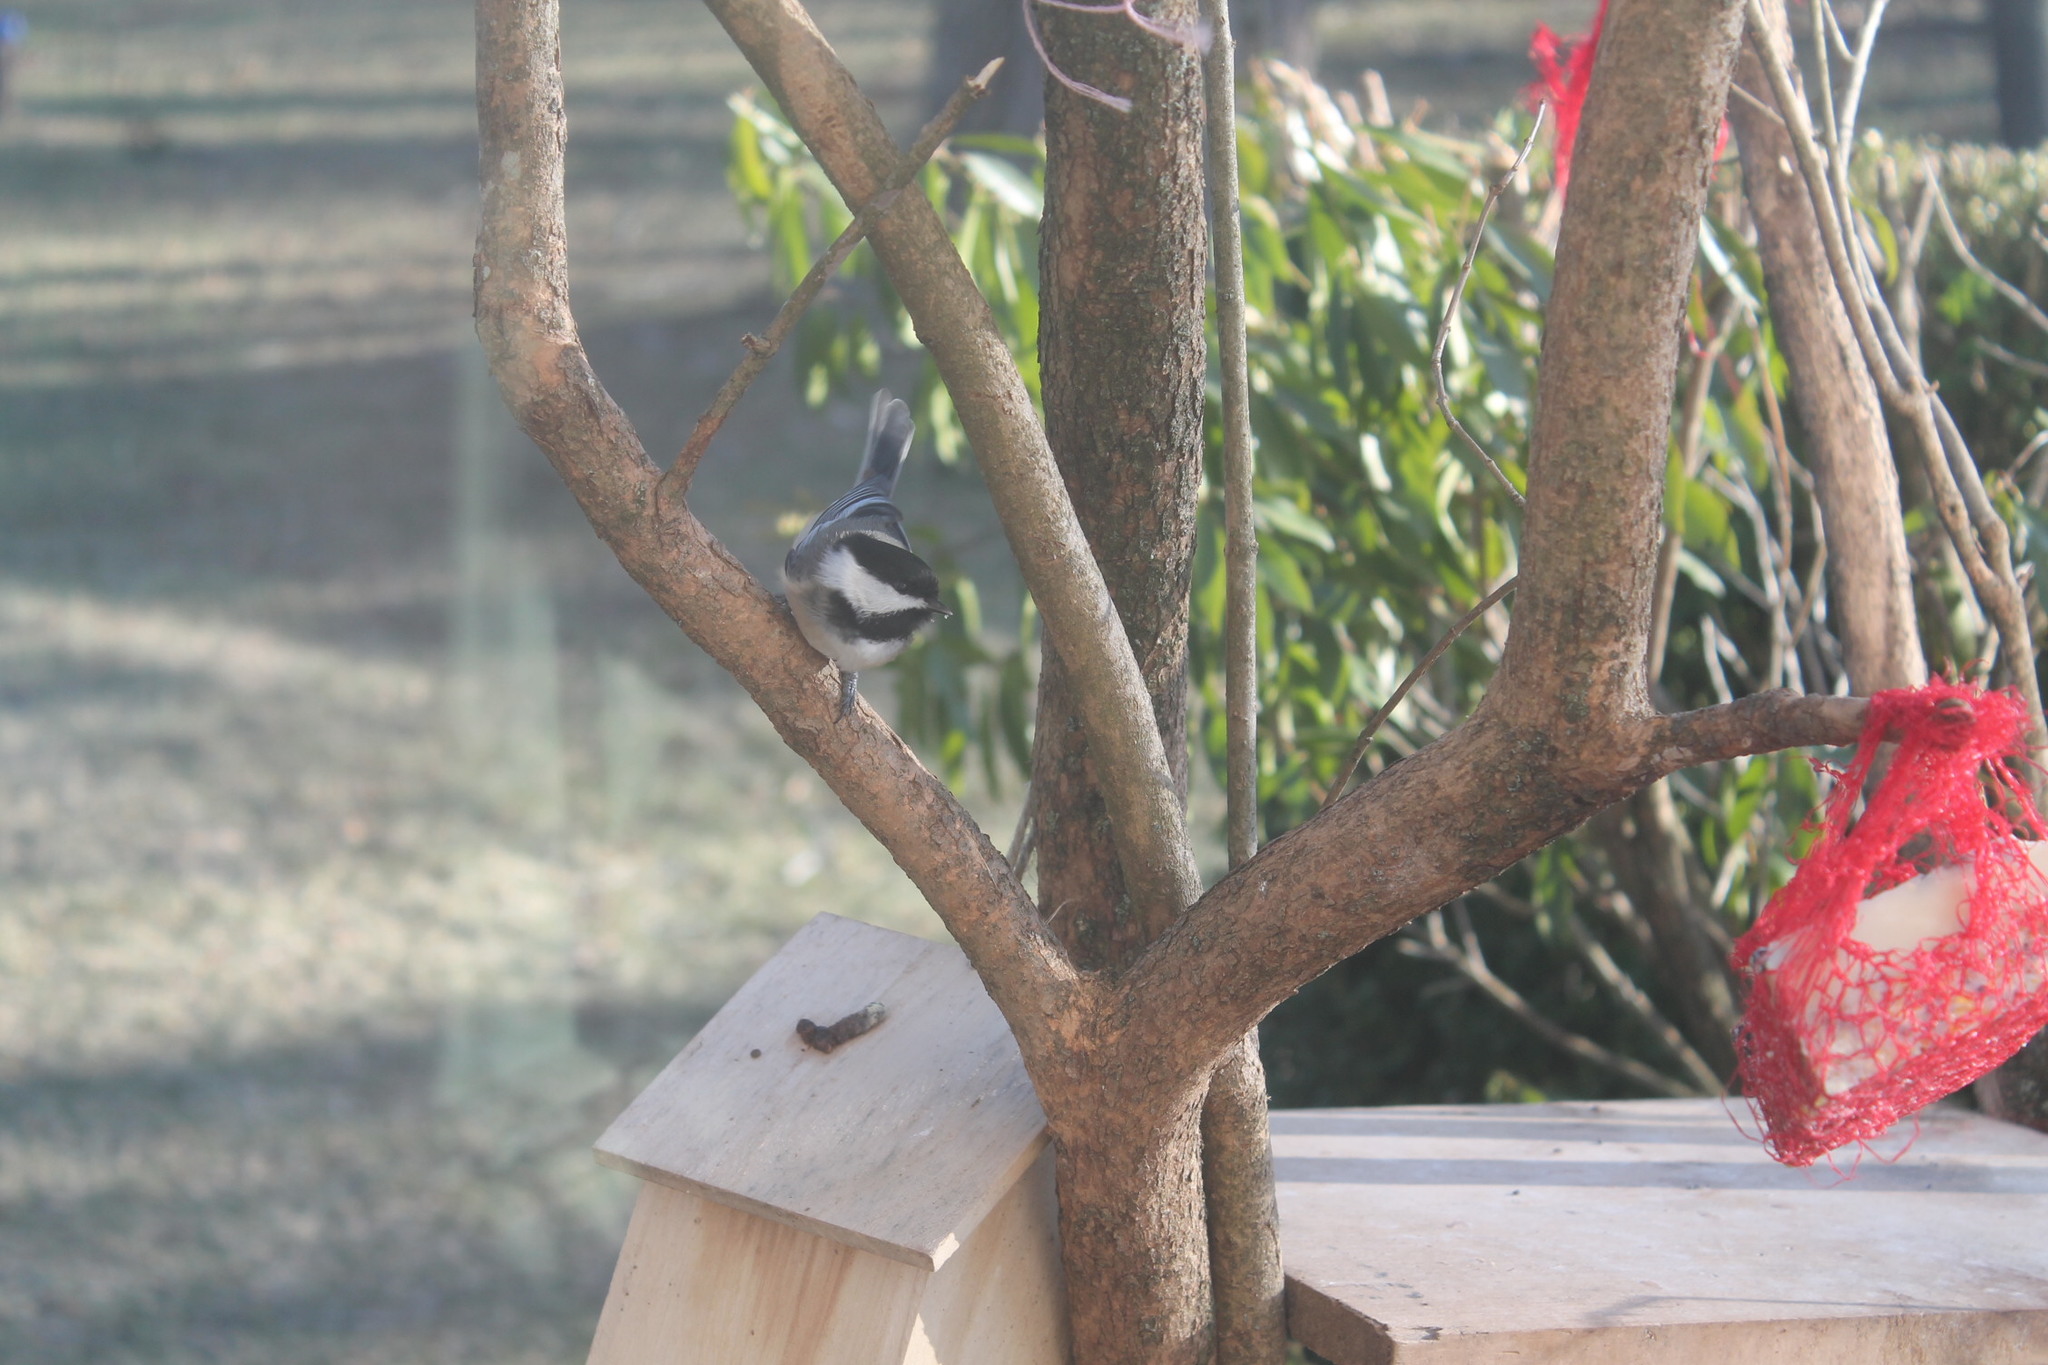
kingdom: Animalia
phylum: Chordata
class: Aves
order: Passeriformes
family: Paridae
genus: Poecile
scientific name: Poecile atricapillus
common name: Black-capped chickadee
